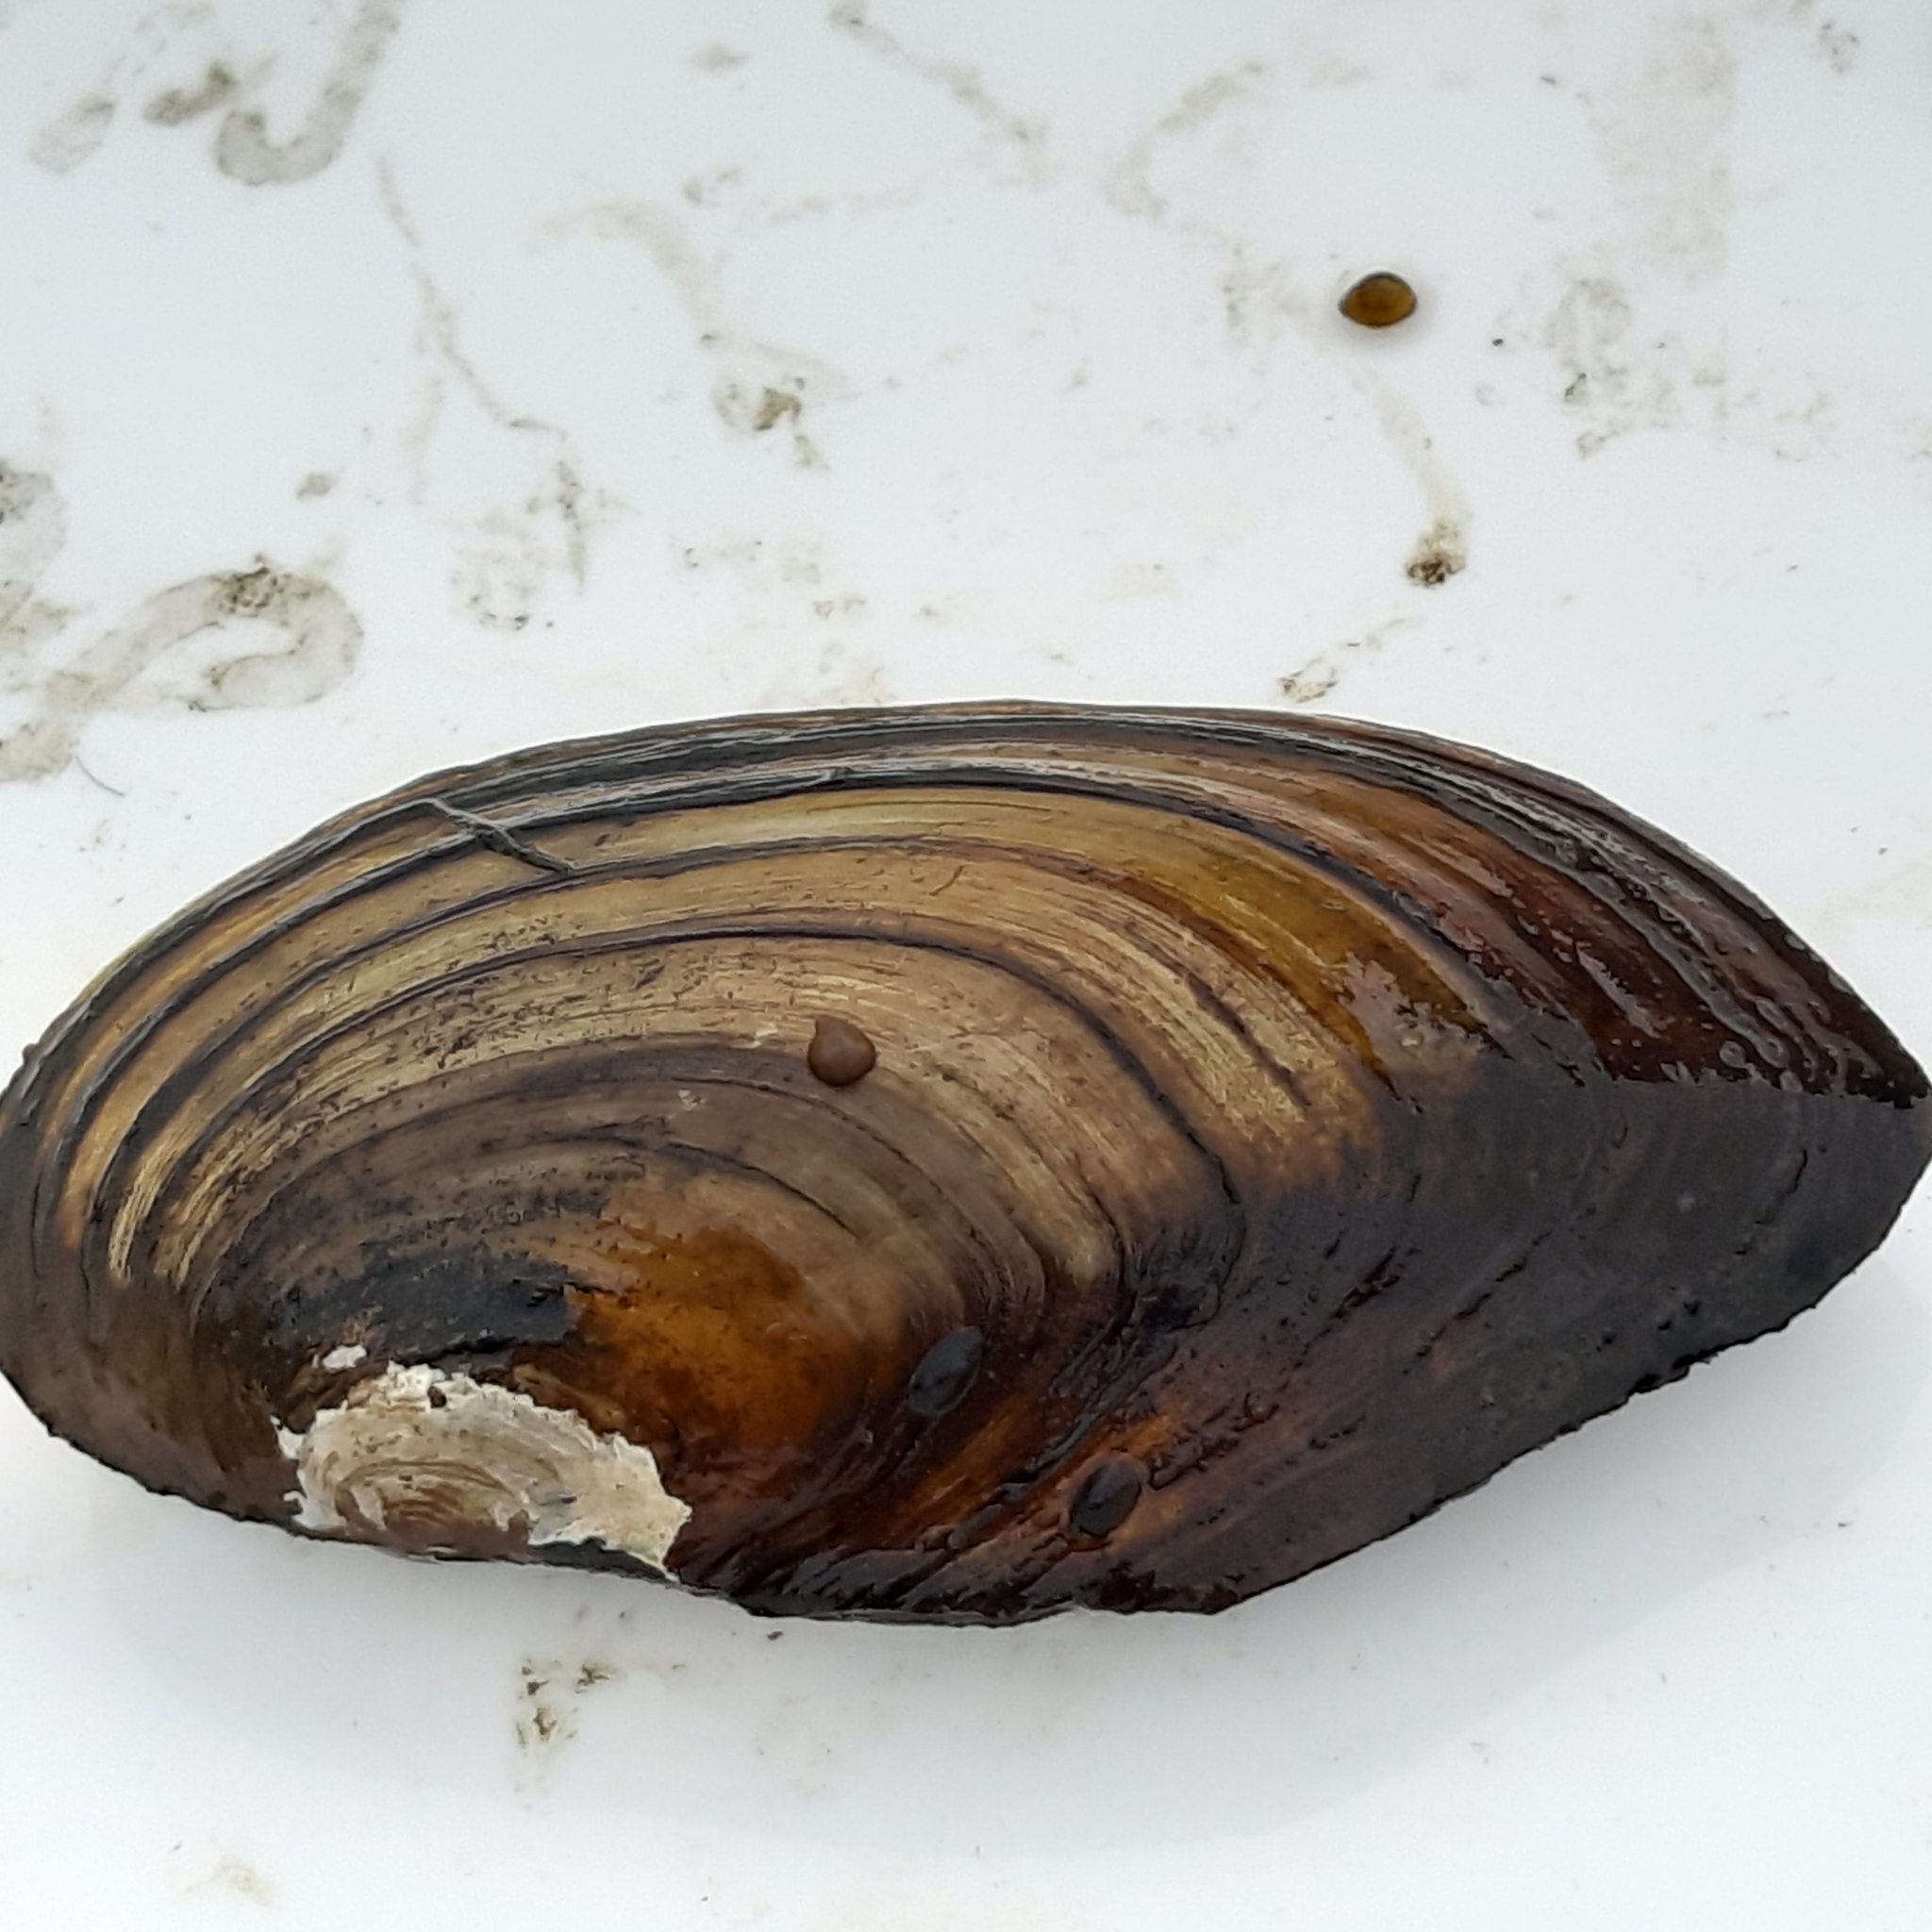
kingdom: Animalia
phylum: Mollusca
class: Bivalvia
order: Unionida
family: Unionidae
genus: Anodonta
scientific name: Anodonta cygnea
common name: Swan mussel
